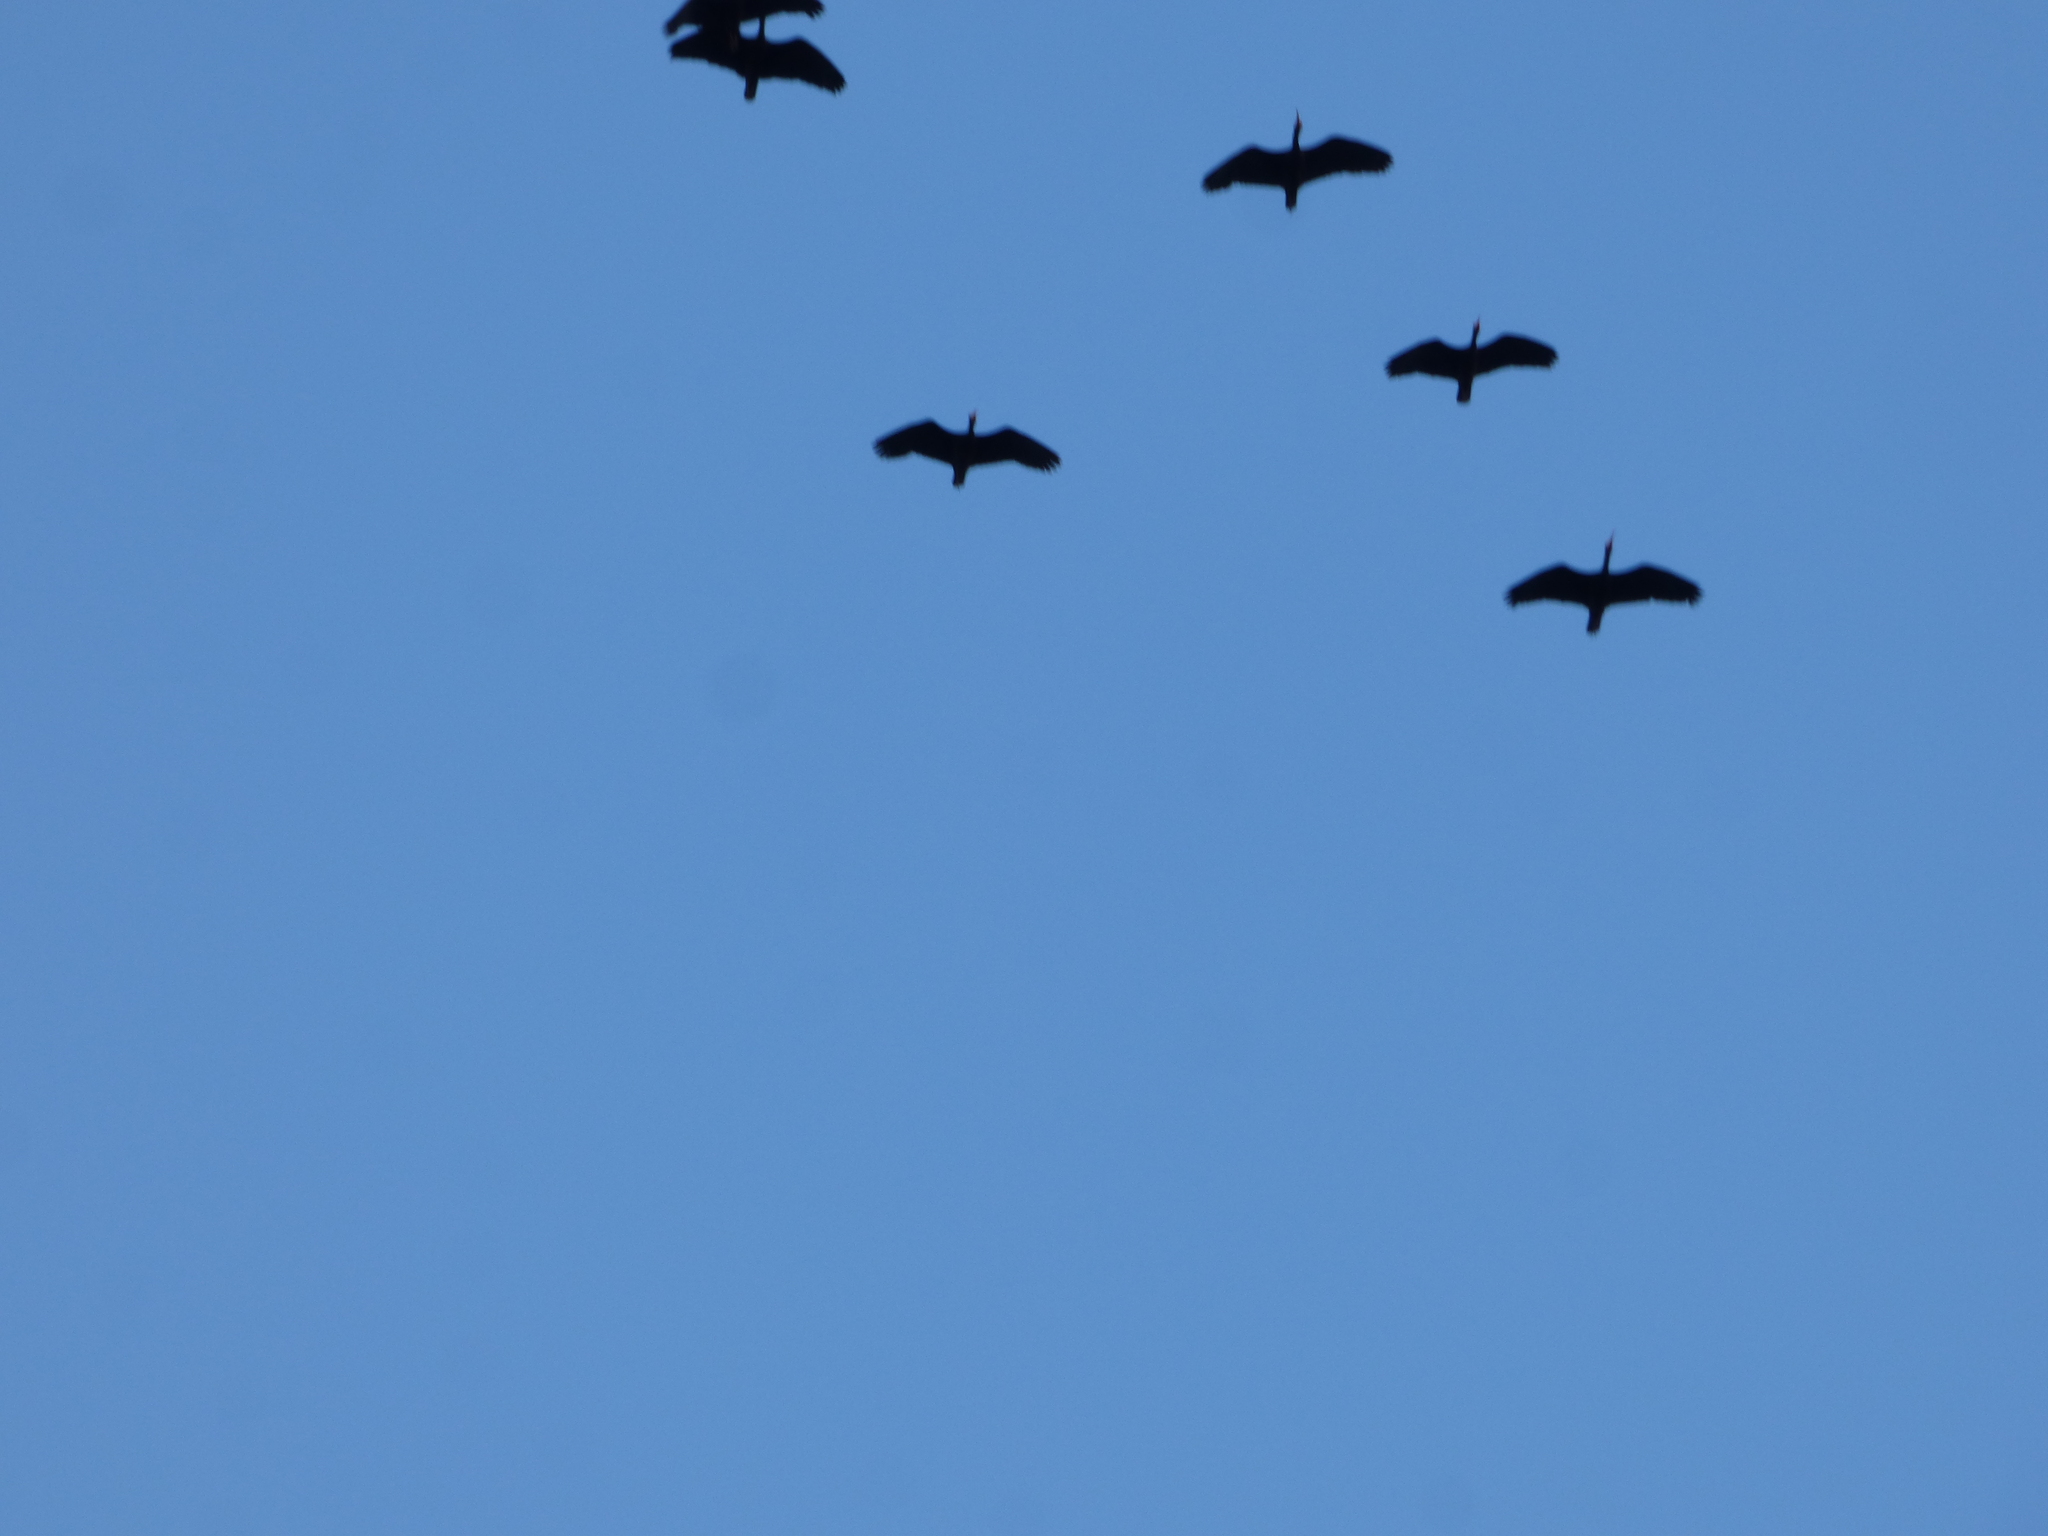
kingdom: Animalia
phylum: Chordata
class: Aves
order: Pelecaniformes
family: Threskiornithidae
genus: Phimosus
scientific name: Phimosus infuscatus
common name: Bare-faced ibis
